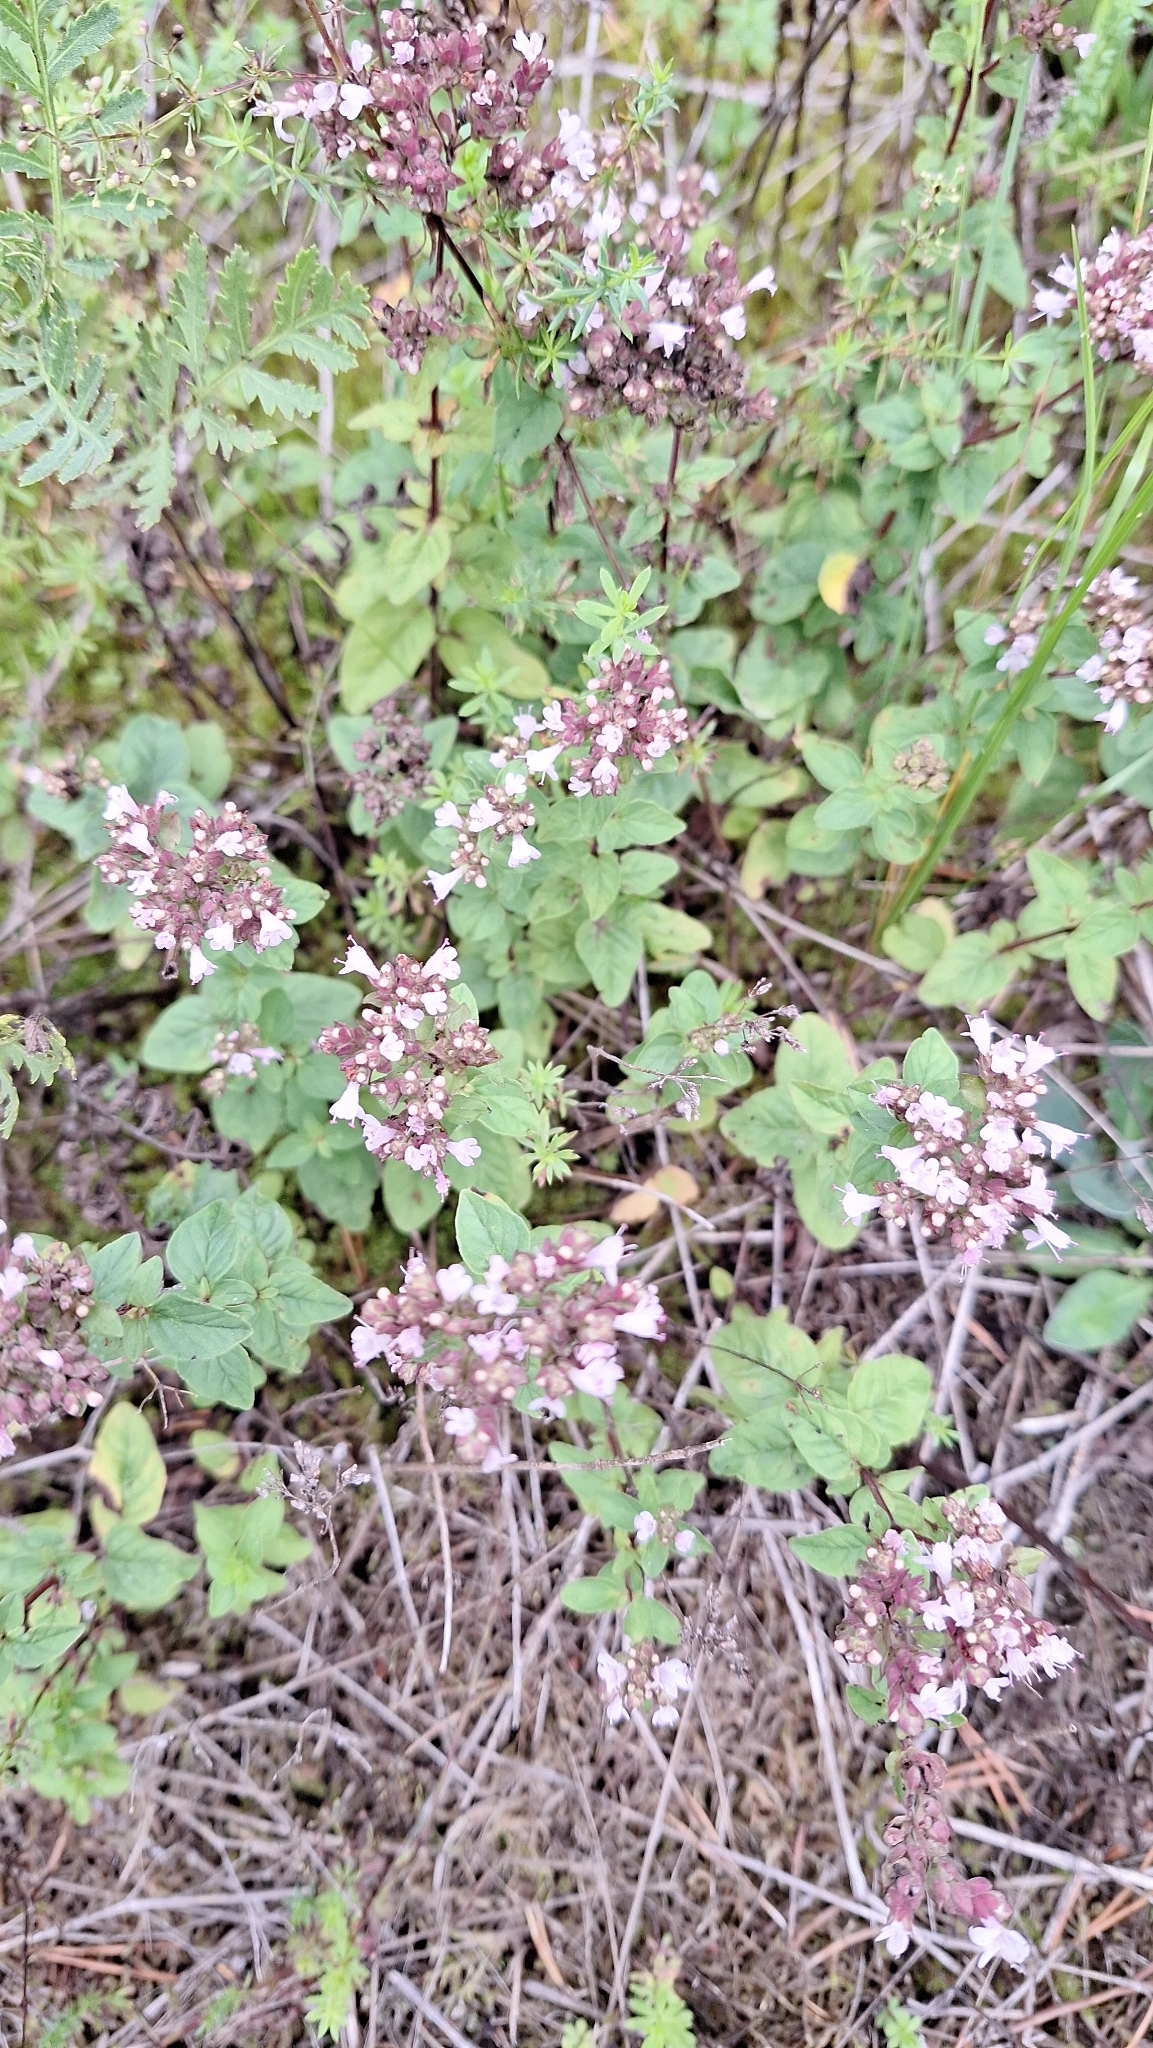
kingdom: Plantae
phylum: Tracheophyta
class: Magnoliopsida
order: Lamiales
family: Lamiaceae
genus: Origanum
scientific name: Origanum vulgare
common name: Wild marjoram
